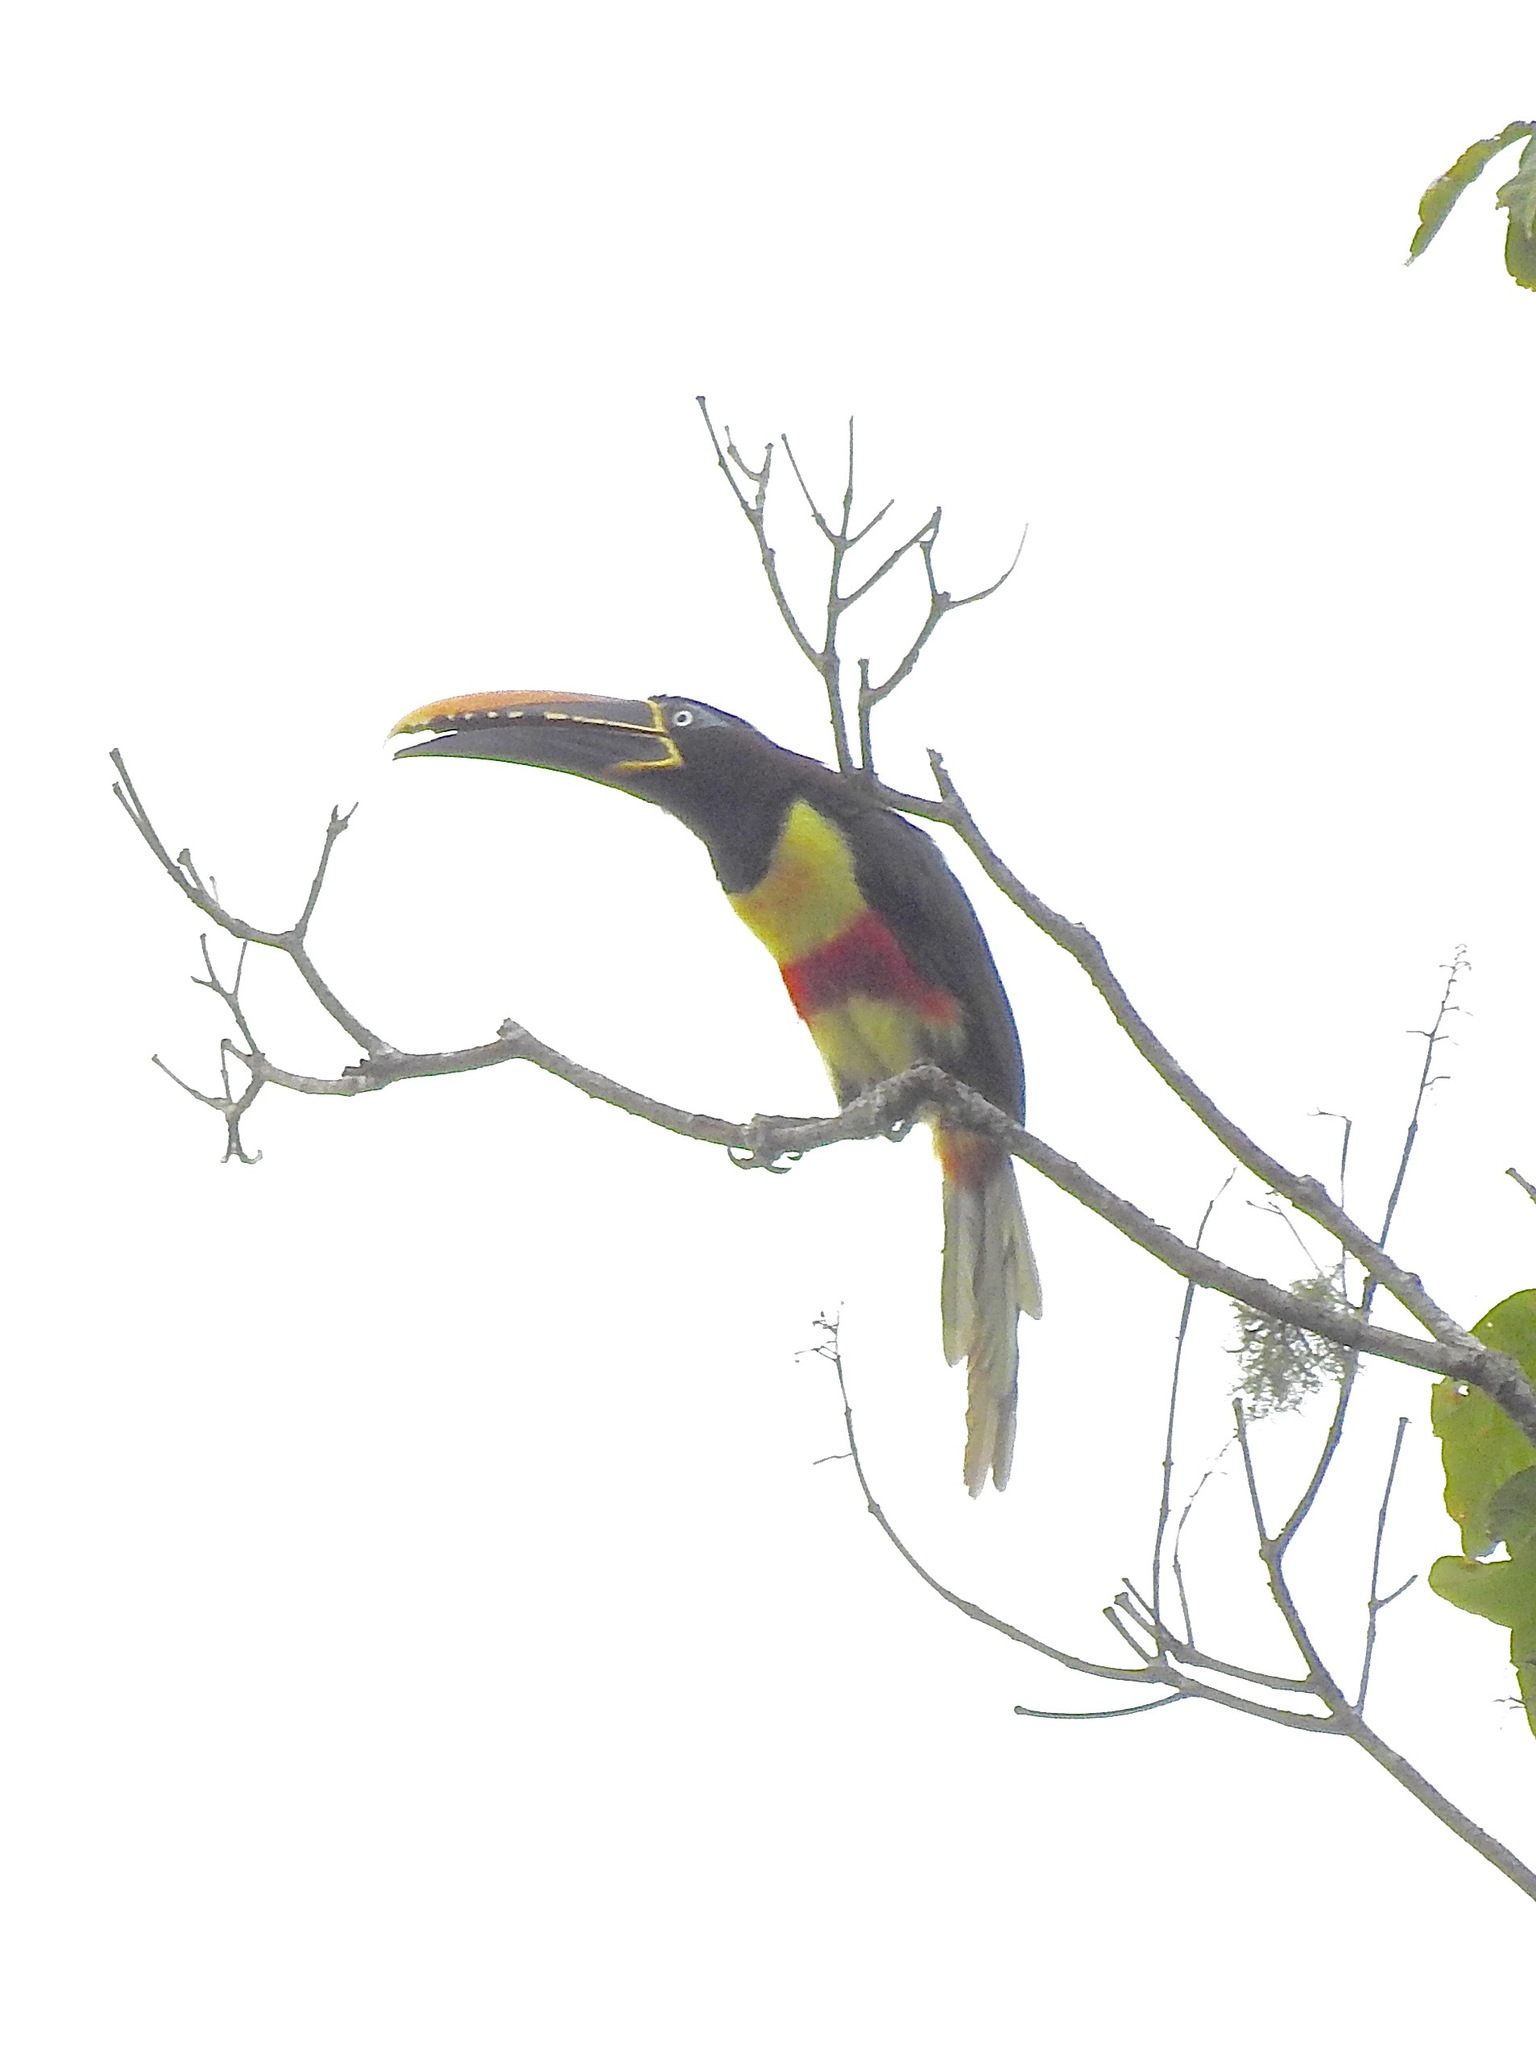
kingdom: Animalia
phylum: Chordata
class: Aves
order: Piciformes
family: Ramphastidae
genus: Pteroglossus
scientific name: Pteroglossus castanotis
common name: Chestnut-eared aracari
